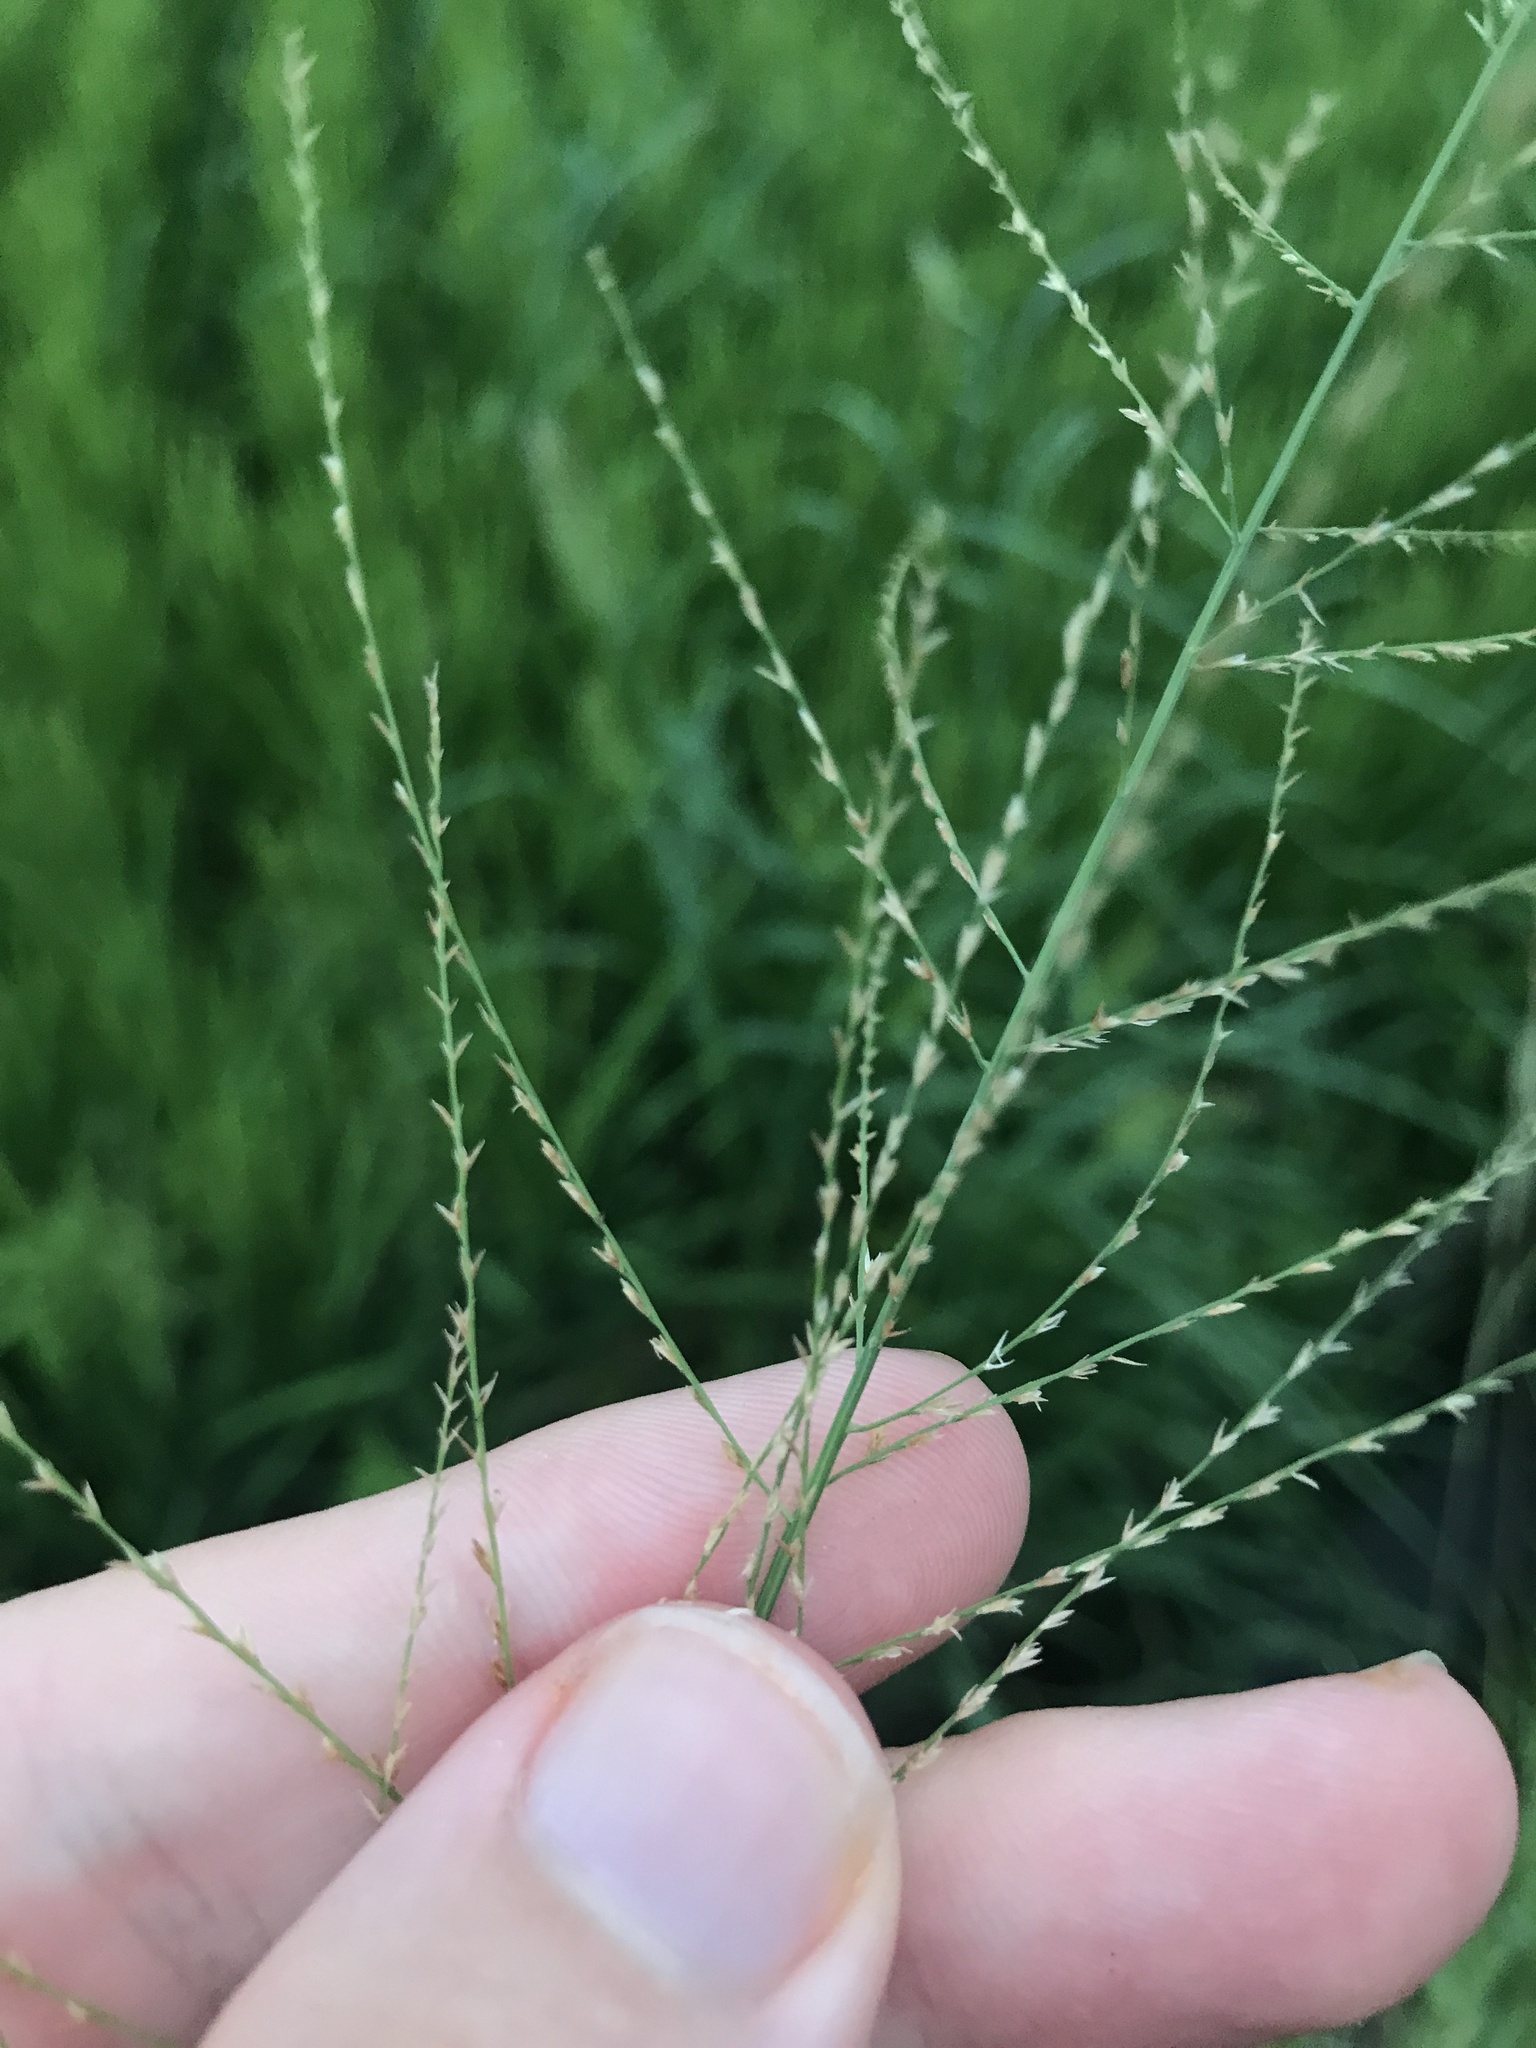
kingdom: Plantae
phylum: Tracheophyta
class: Liliopsida
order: Poales
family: Poaceae
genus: Leptochloa
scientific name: Leptochloa chinensis
